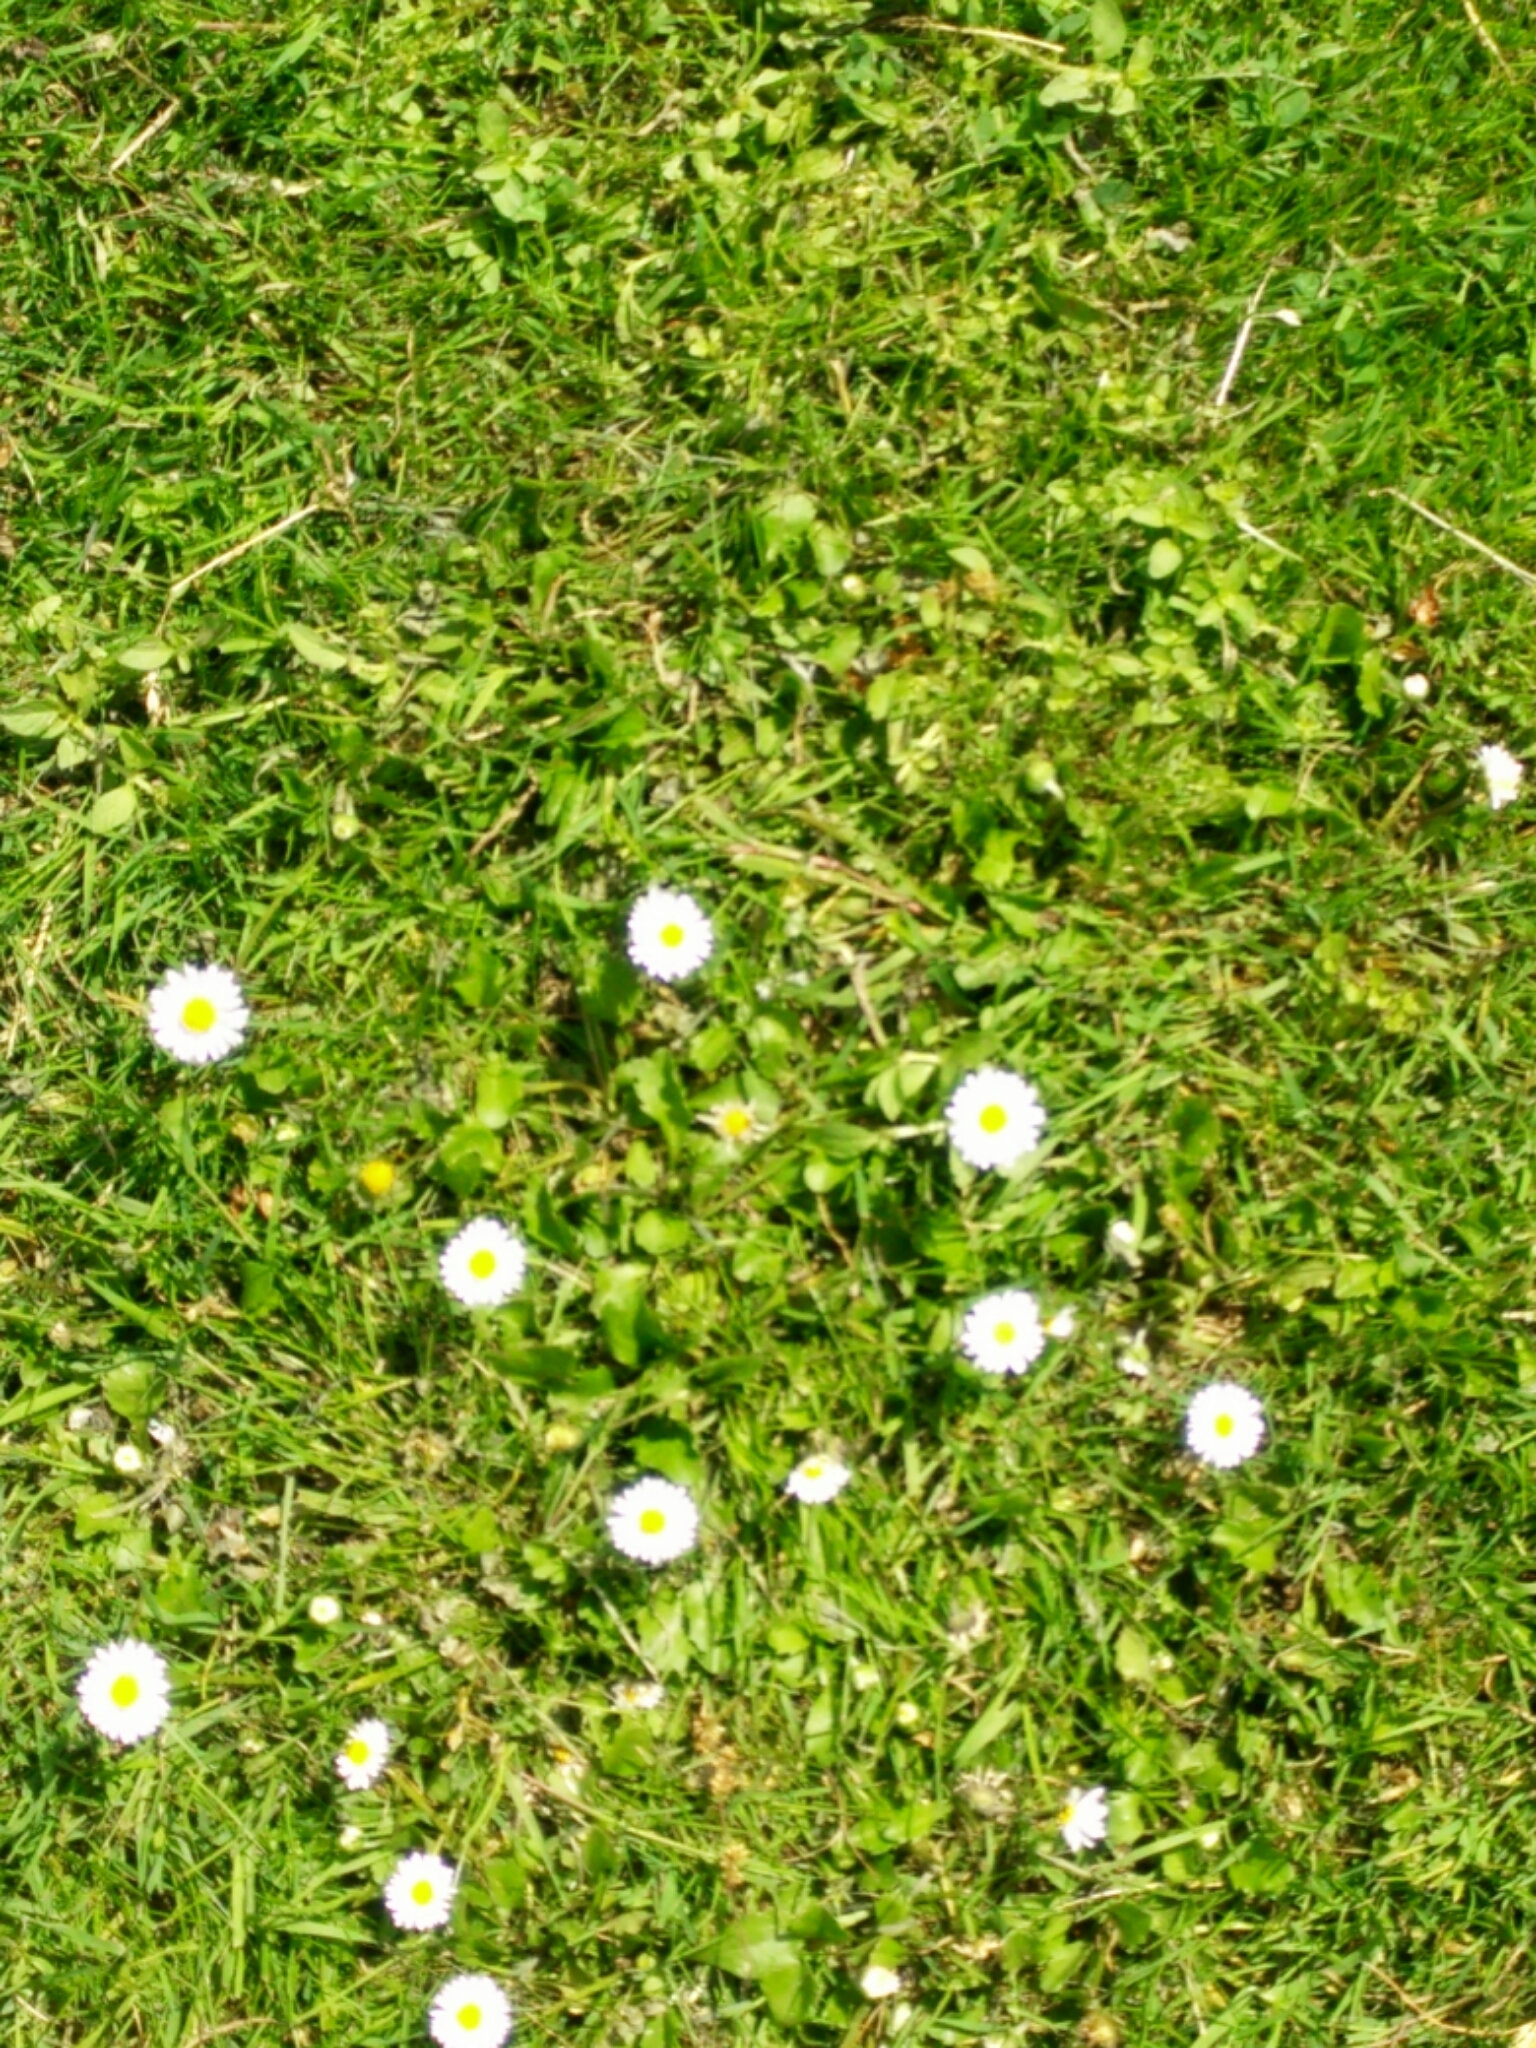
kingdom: Plantae
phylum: Tracheophyta
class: Magnoliopsida
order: Asterales
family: Asteraceae
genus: Bellis
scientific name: Bellis perennis
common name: Lawndaisy
